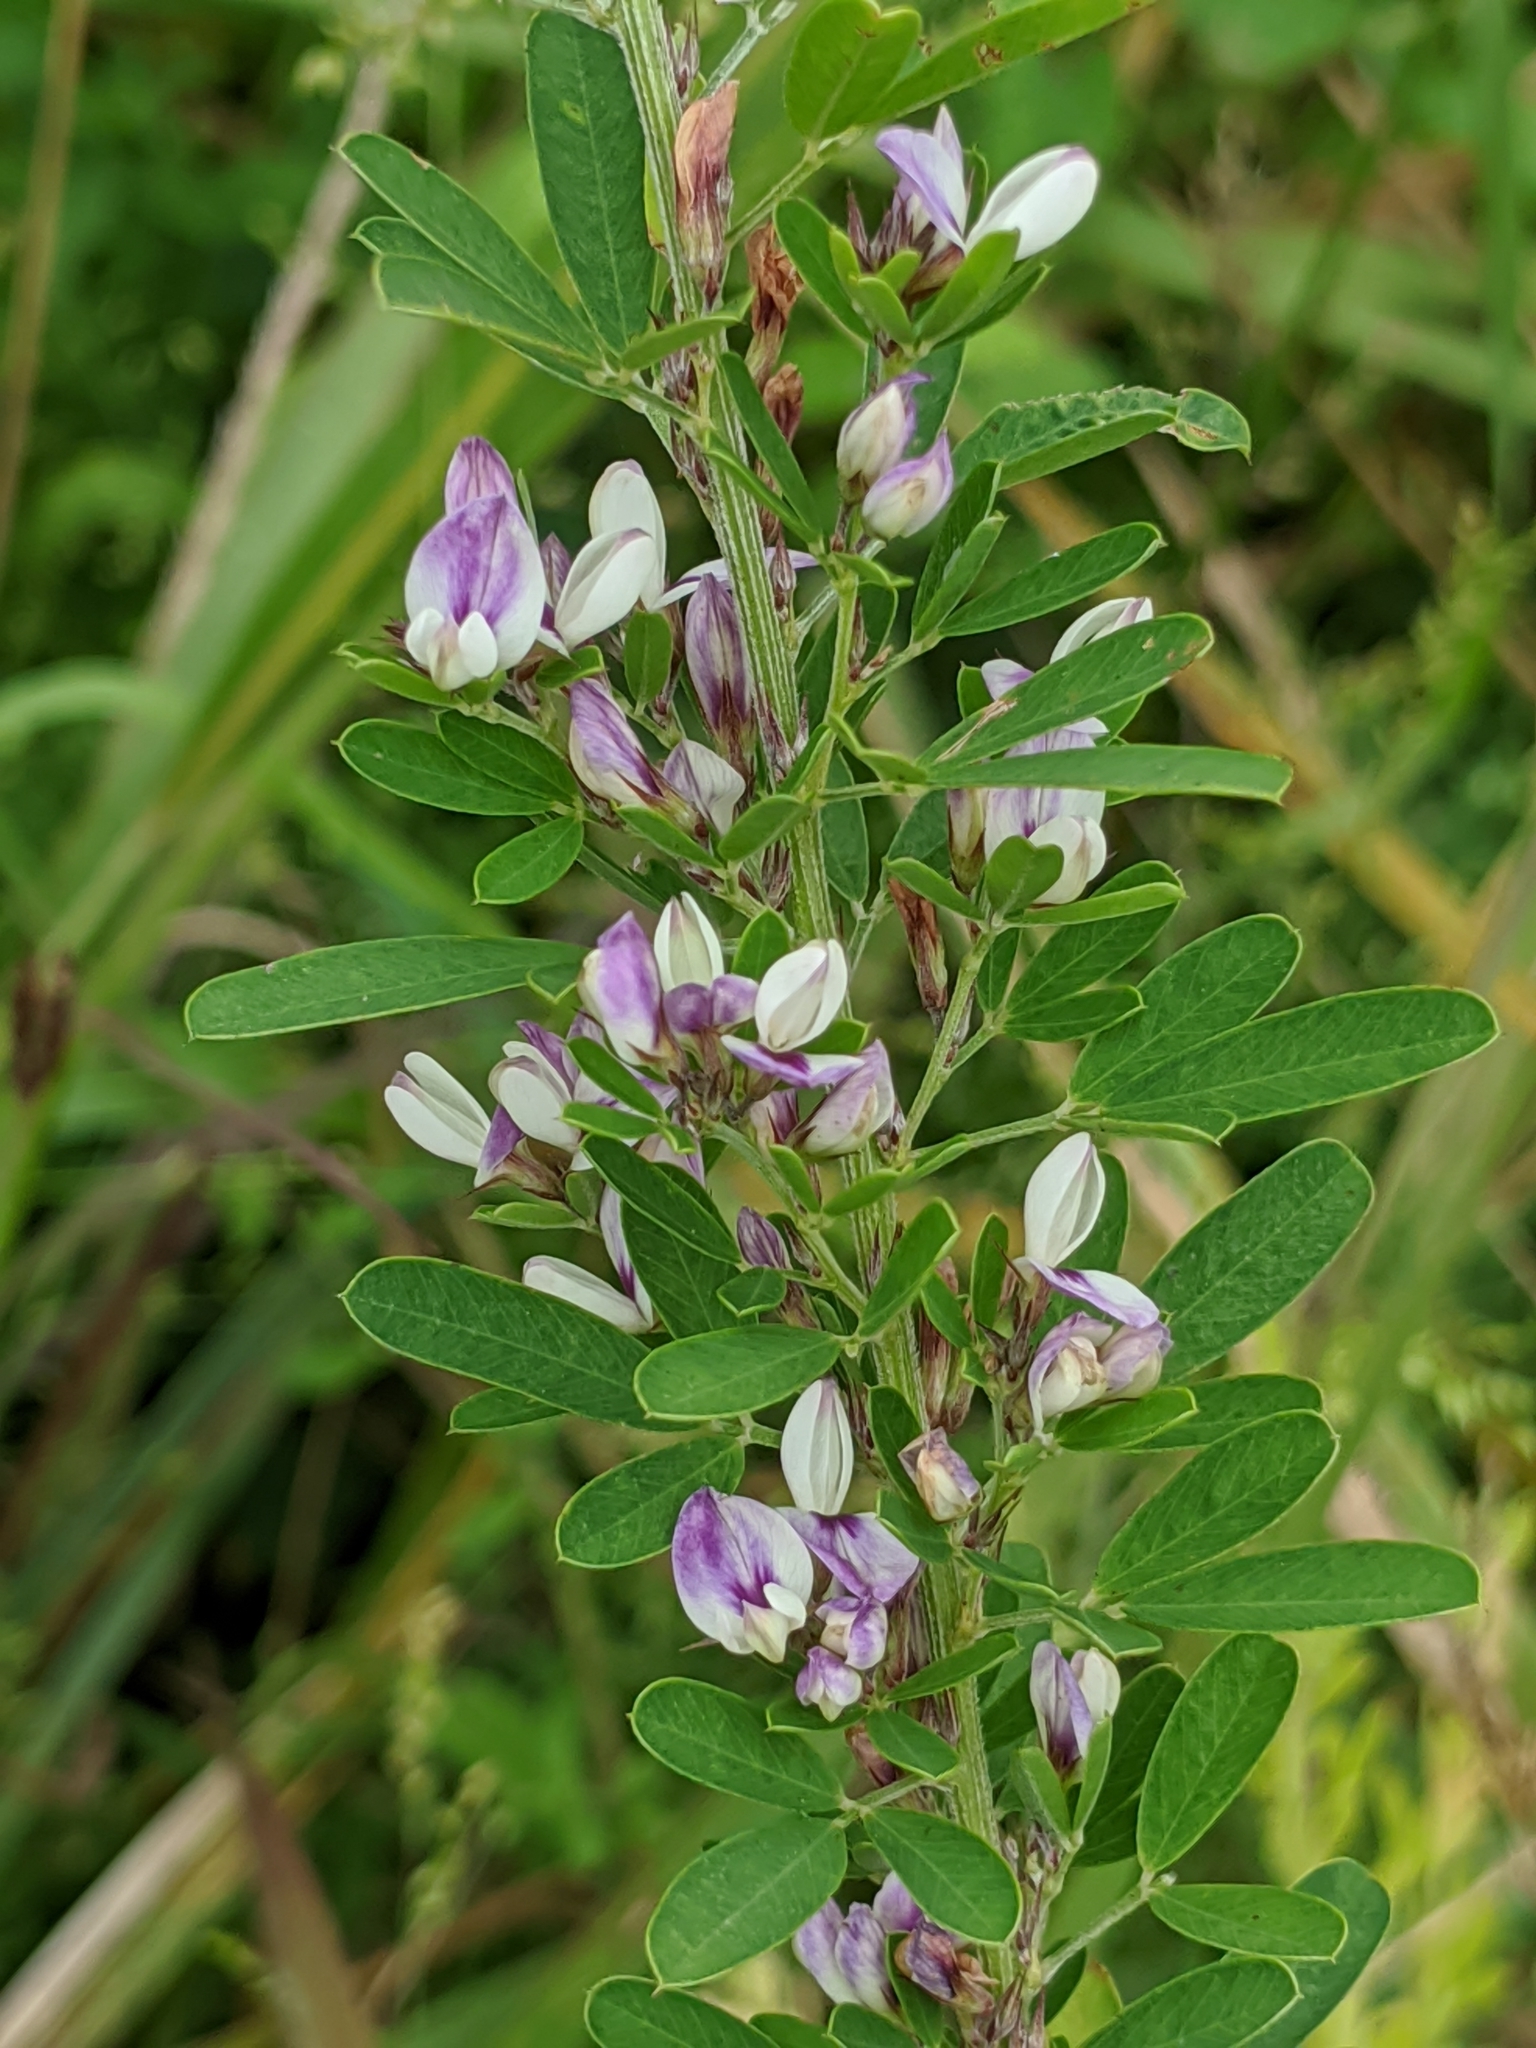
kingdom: Plantae
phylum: Tracheophyta
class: Magnoliopsida
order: Fabales
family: Fabaceae
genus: Lespedeza
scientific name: Lespedeza cuneata
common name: Chinese bush-clover
